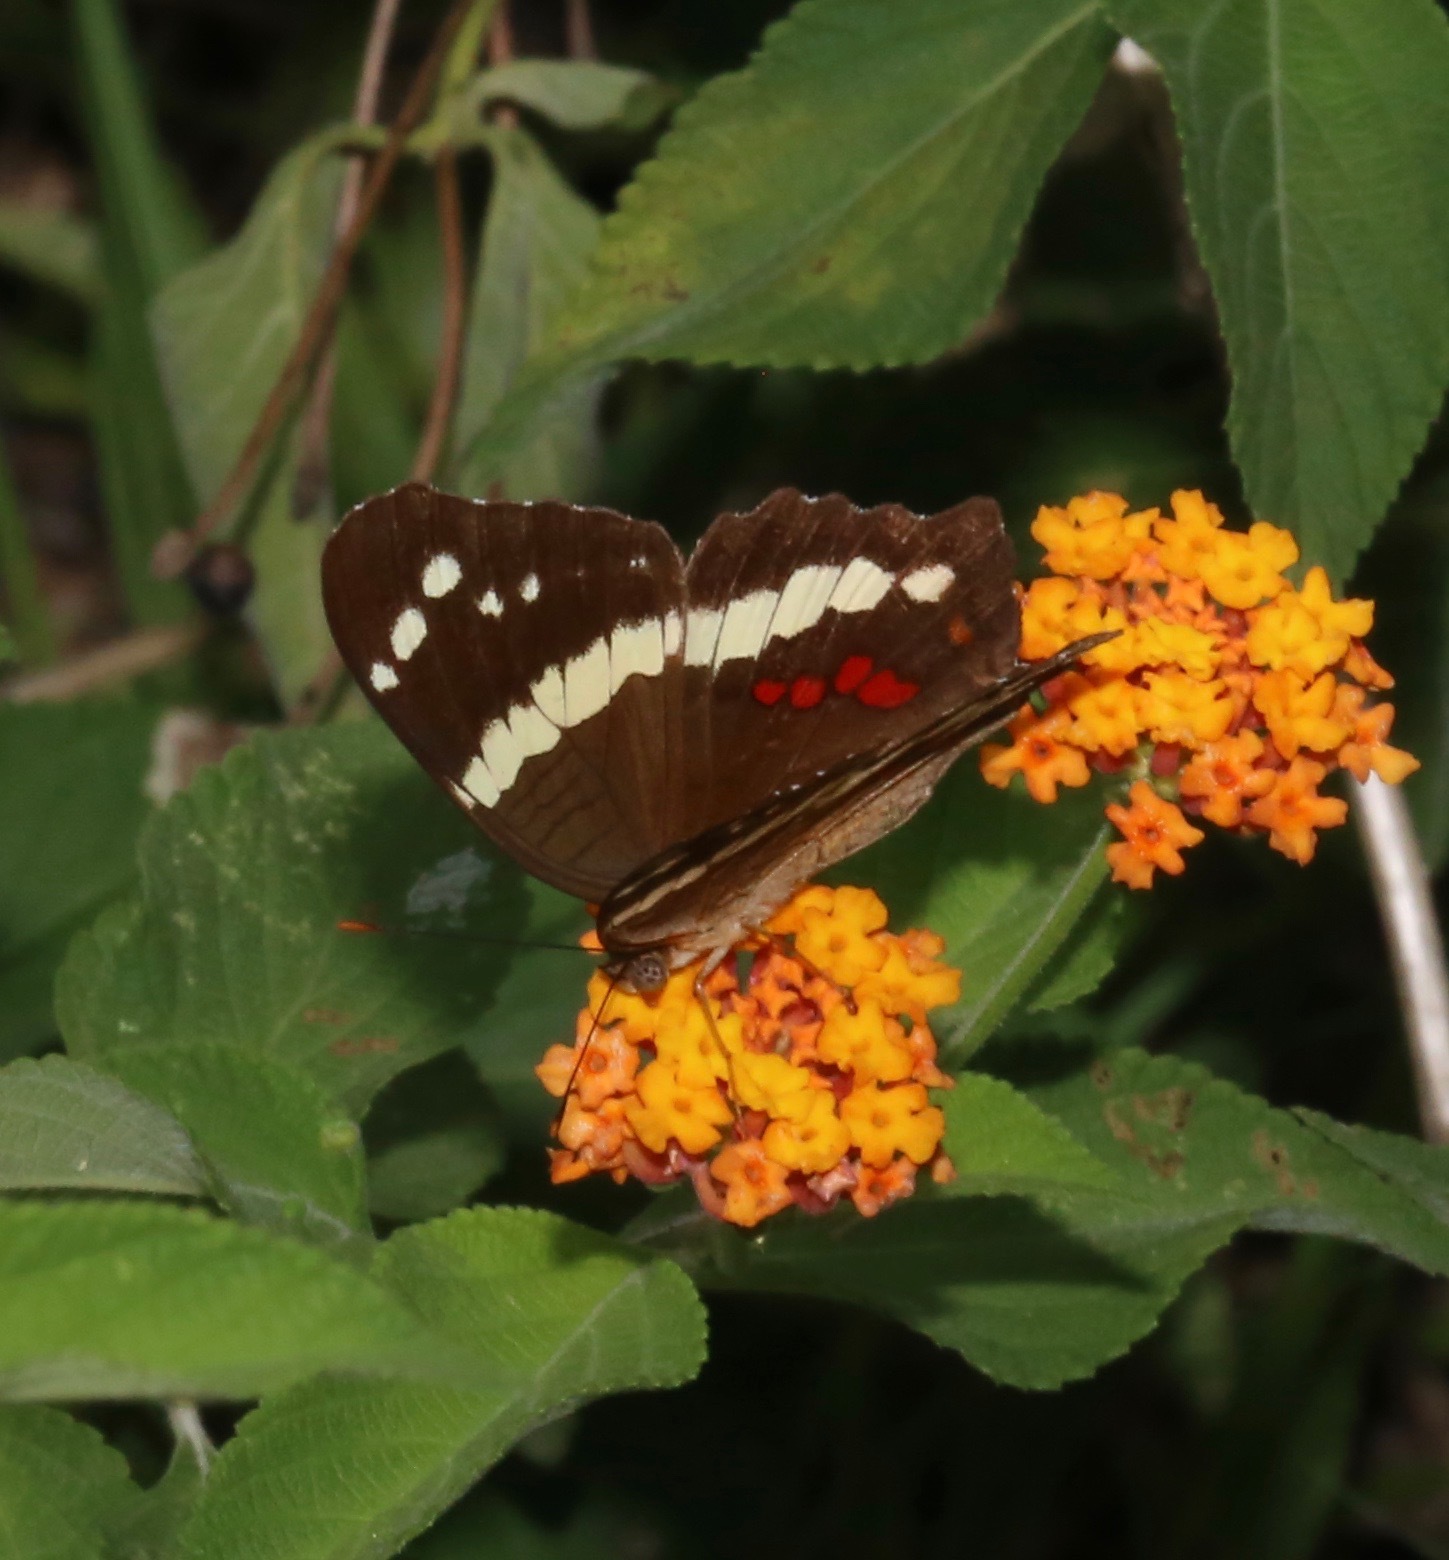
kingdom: Animalia
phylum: Arthropoda
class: Insecta
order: Lepidoptera
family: Nymphalidae
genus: Anartia
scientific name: Anartia fatima
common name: Banded peacock
